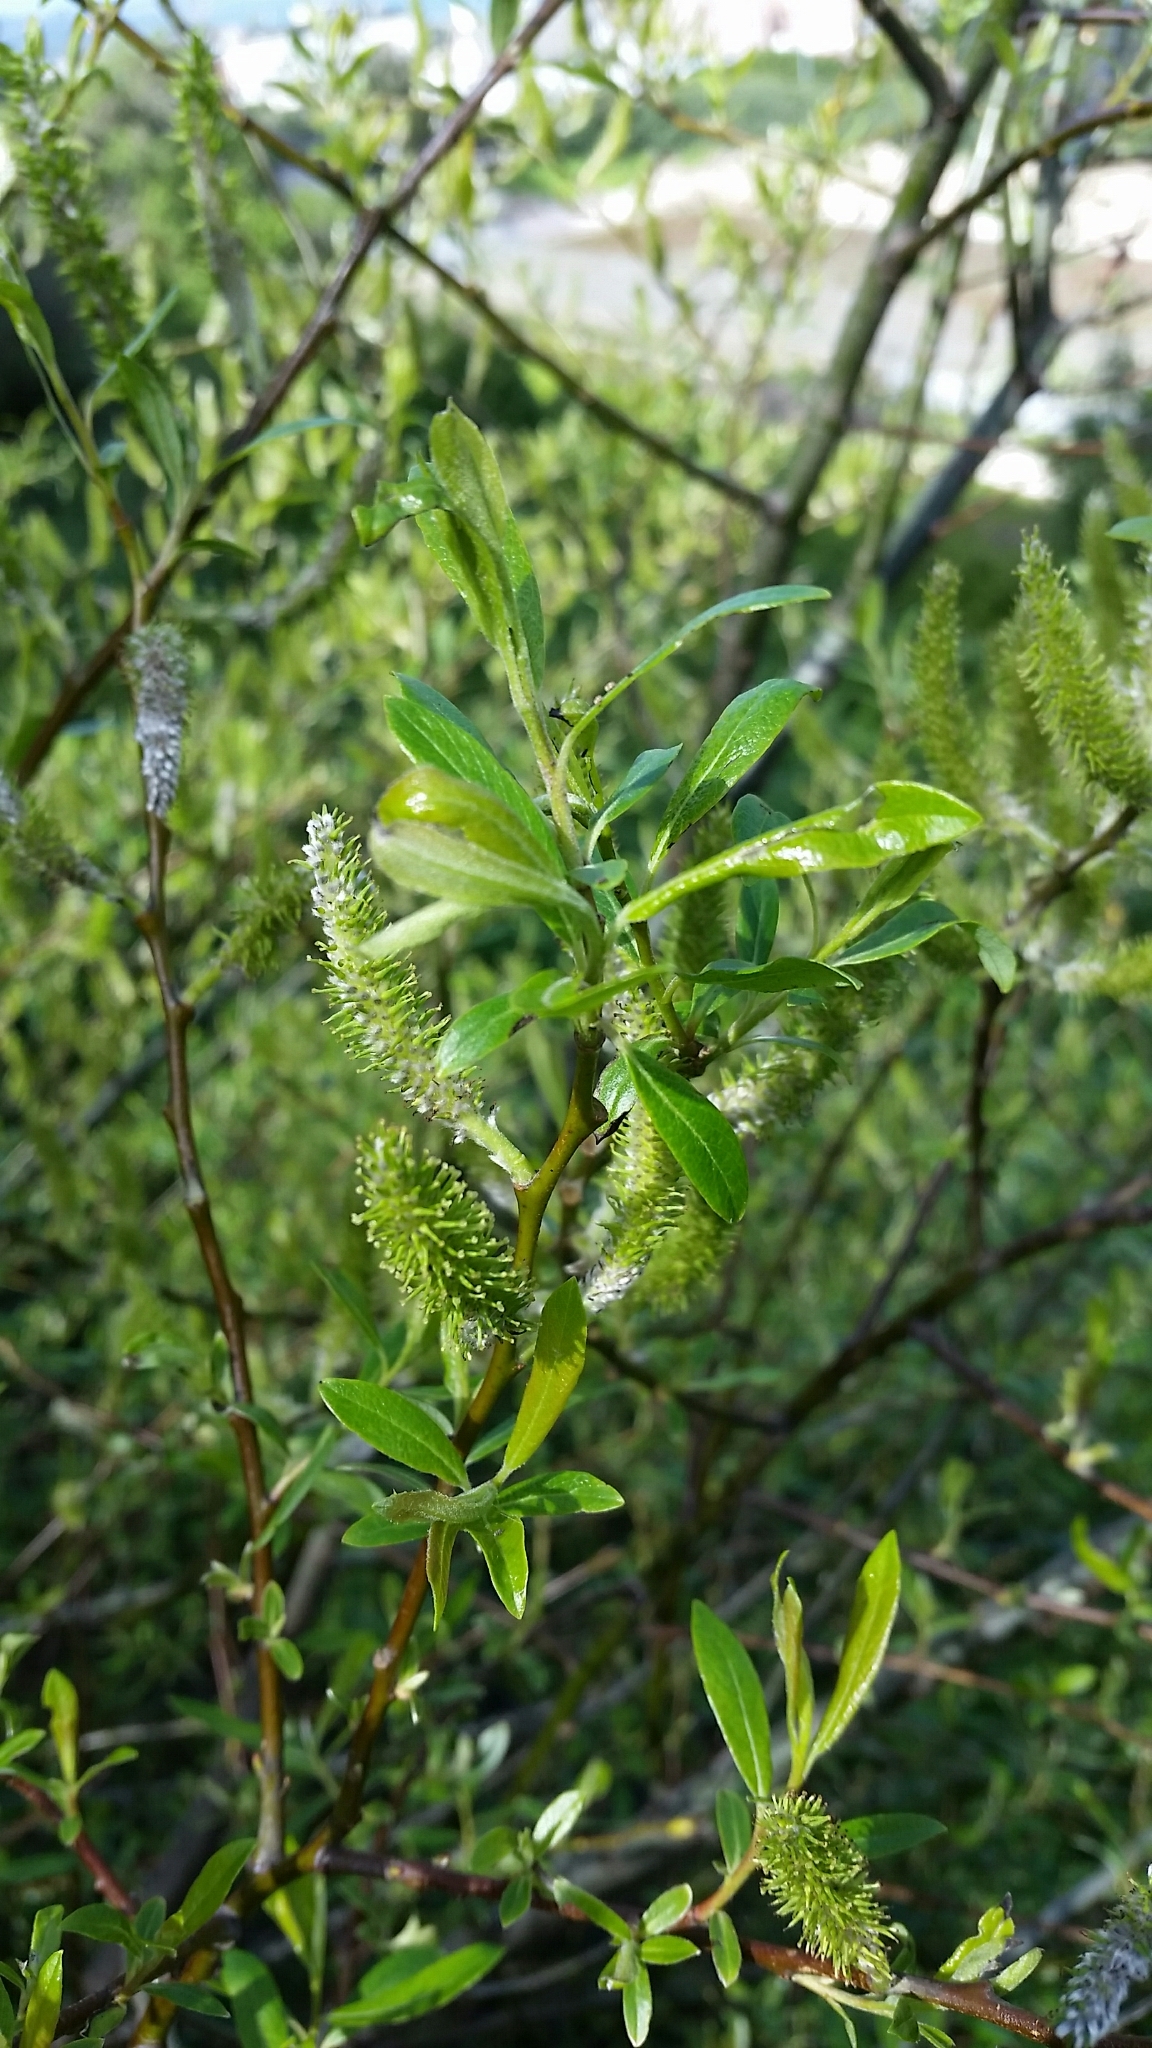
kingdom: Plantae
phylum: Tracheophyta
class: Magnoliopsida
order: Malpighiales
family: Salicaceae
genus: Salix
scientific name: Salix lasiolepis
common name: Arroyo willow
